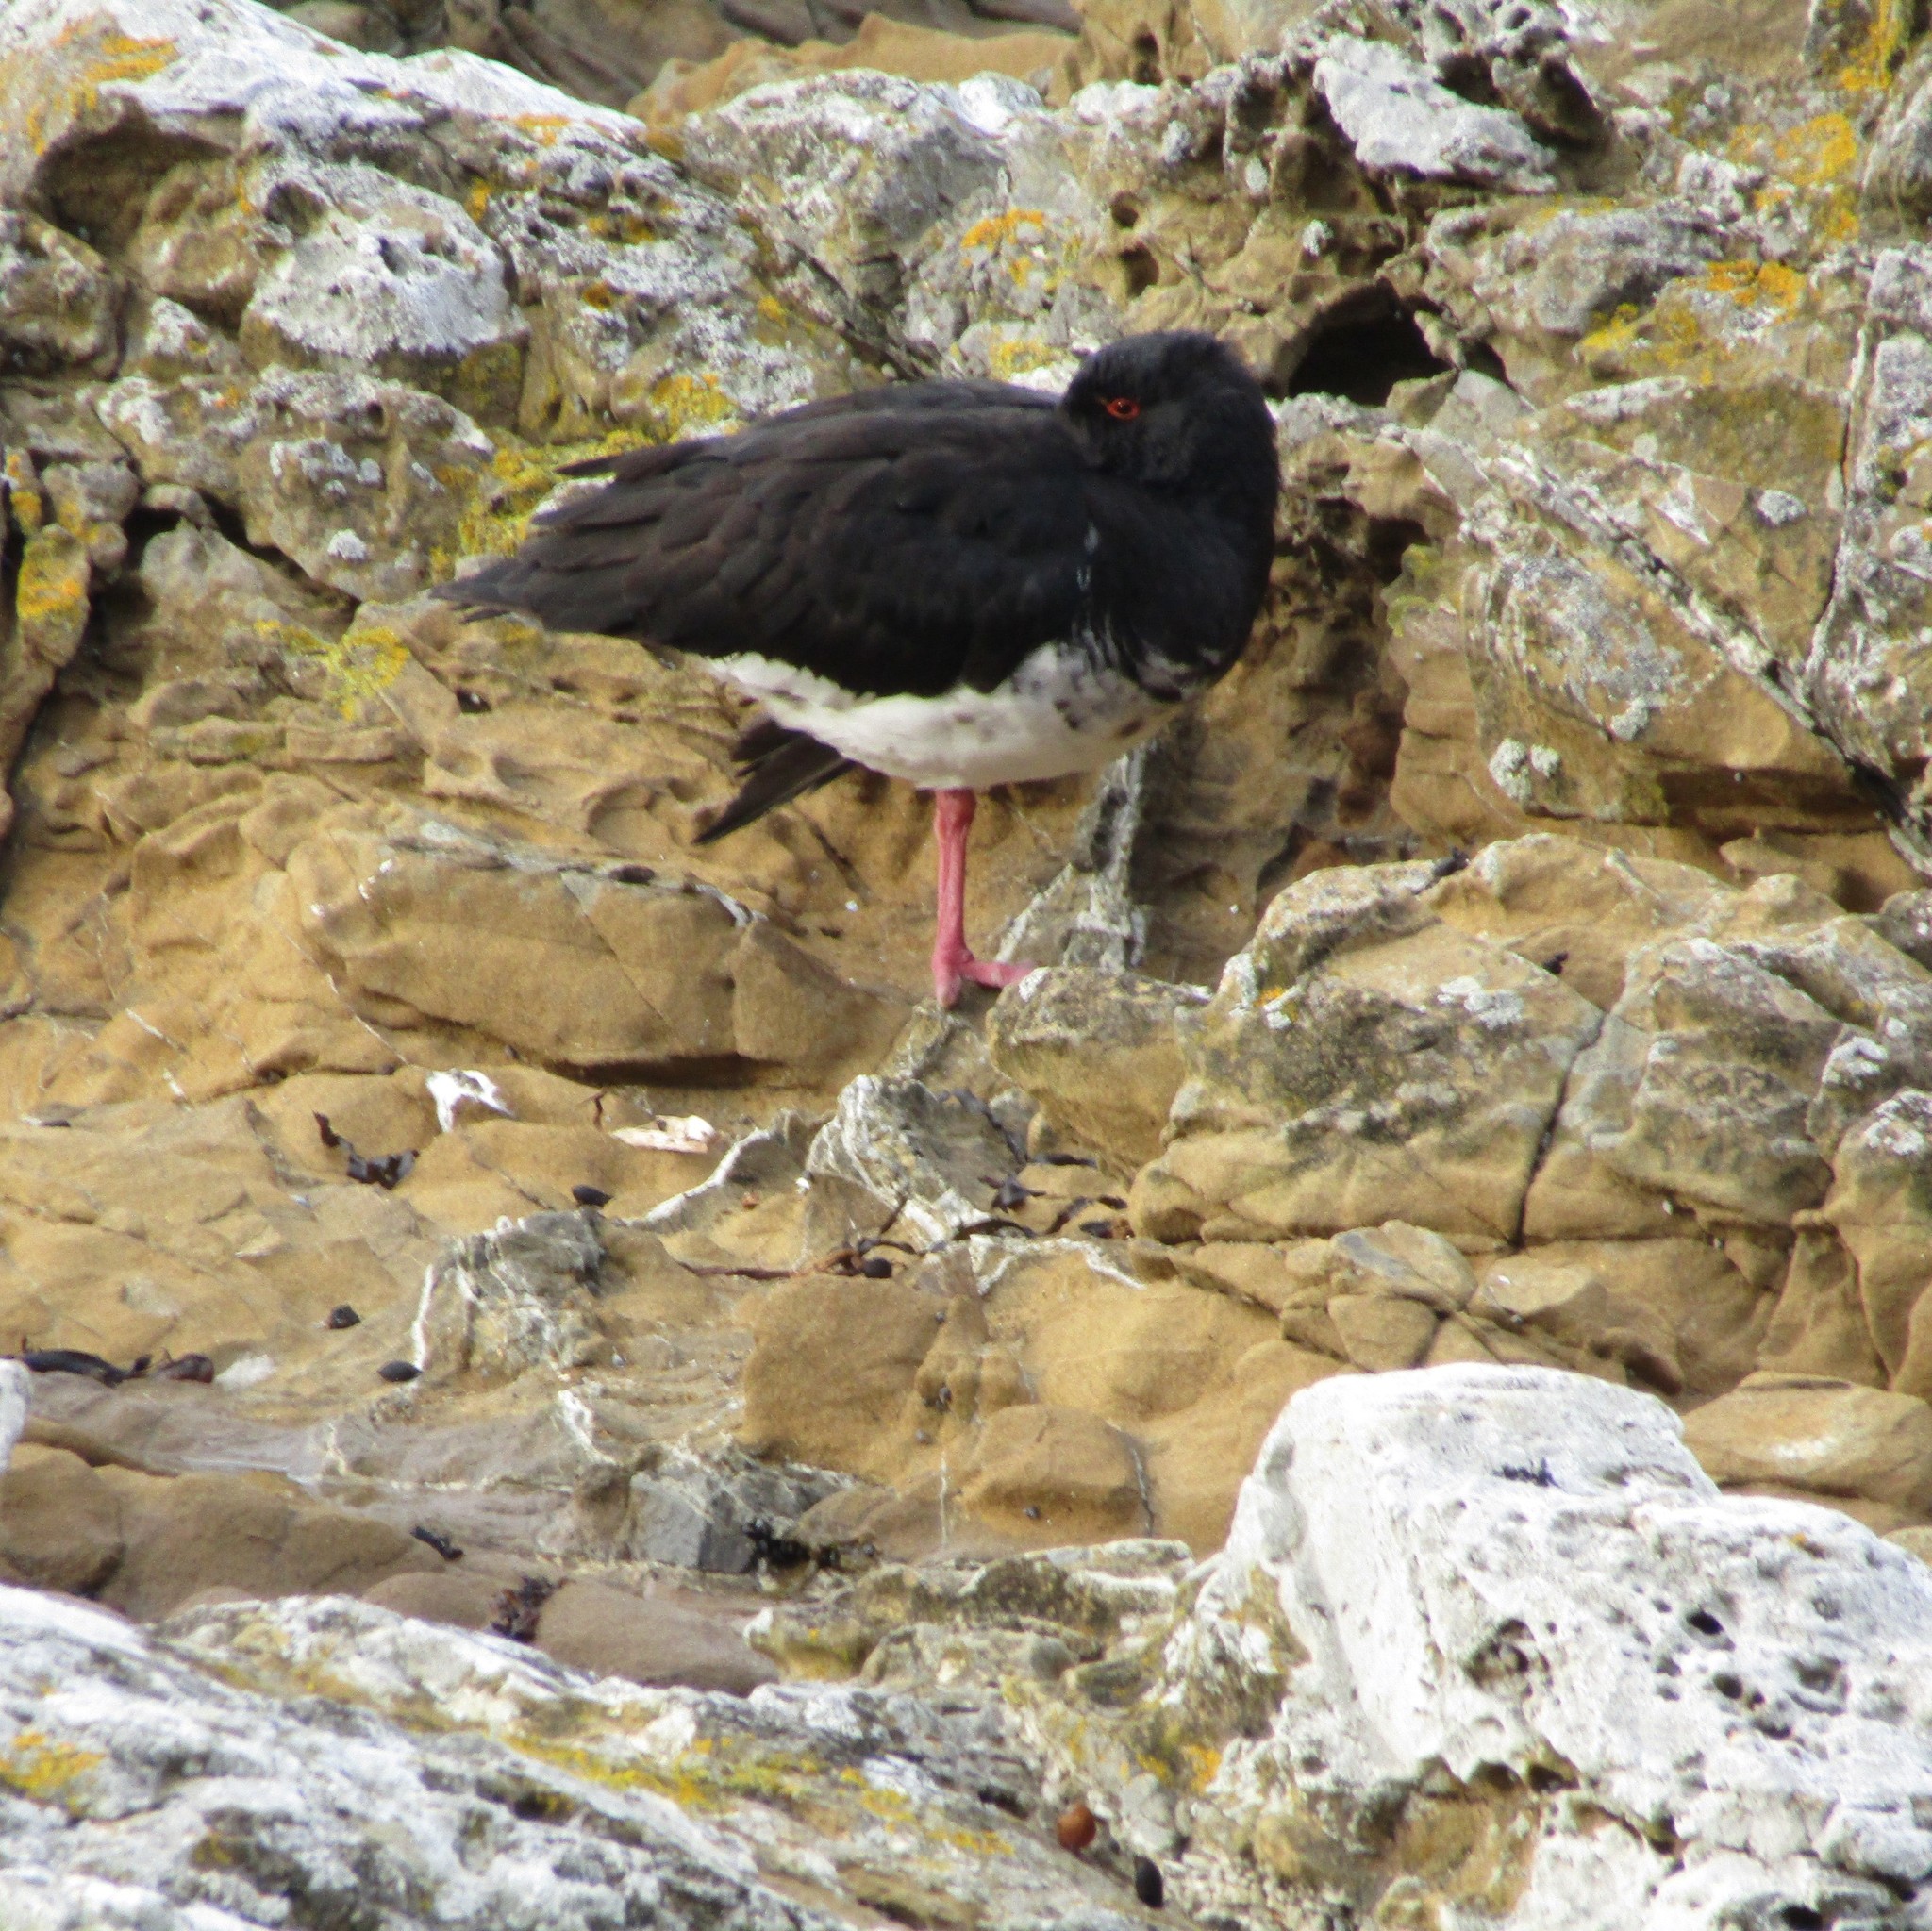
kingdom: Animalia
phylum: Chordata
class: Aves
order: Charadriiformes
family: Haematopodidae
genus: Haematopus
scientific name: Haematopus unicolor
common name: Variable oystercatcher
